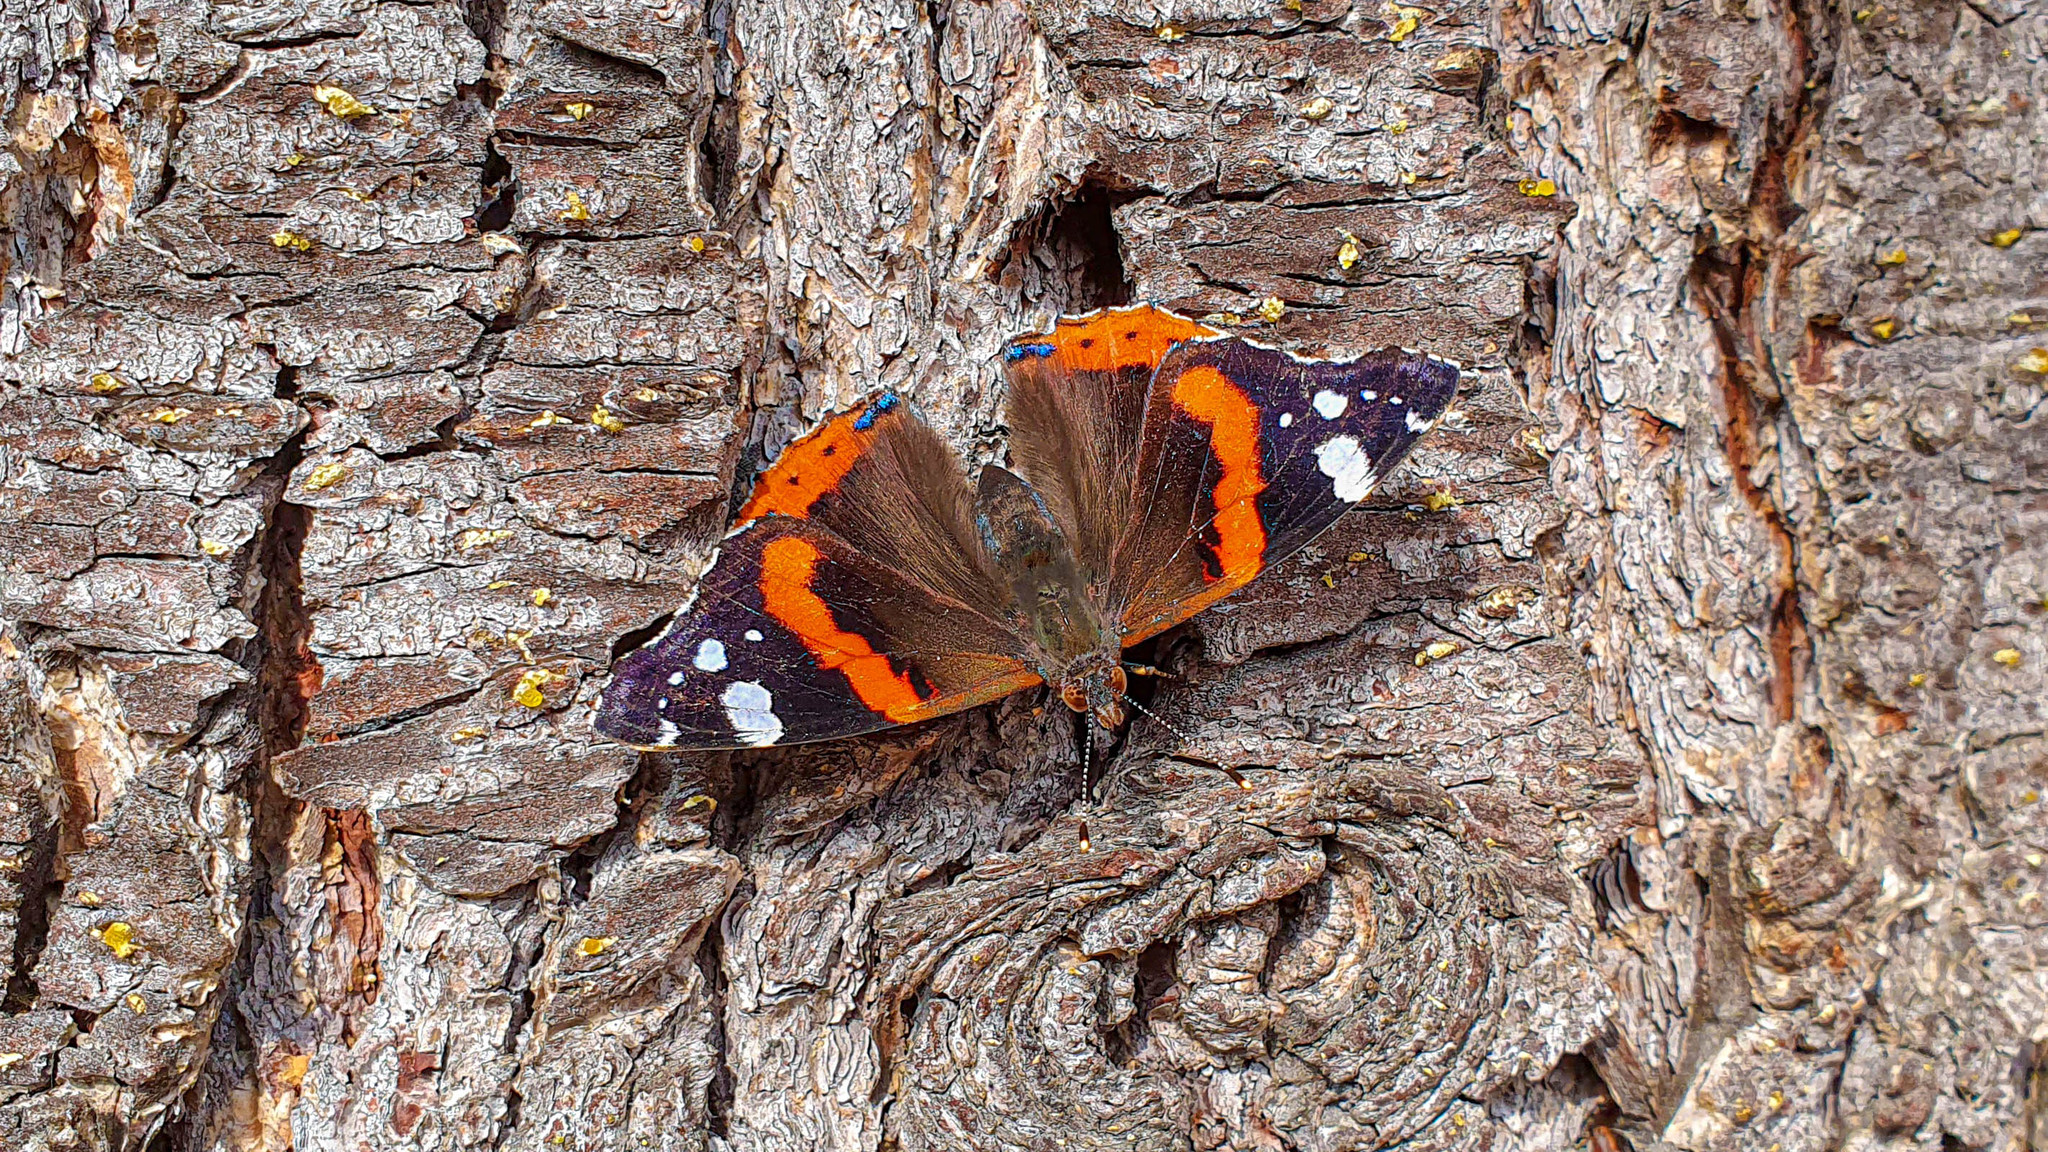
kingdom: Animalia
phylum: Arthropoda
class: Insecta
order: Lepidoptera
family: Nymphalidae
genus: Vanessa
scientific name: Vanessa atalanta
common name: Red admiral
